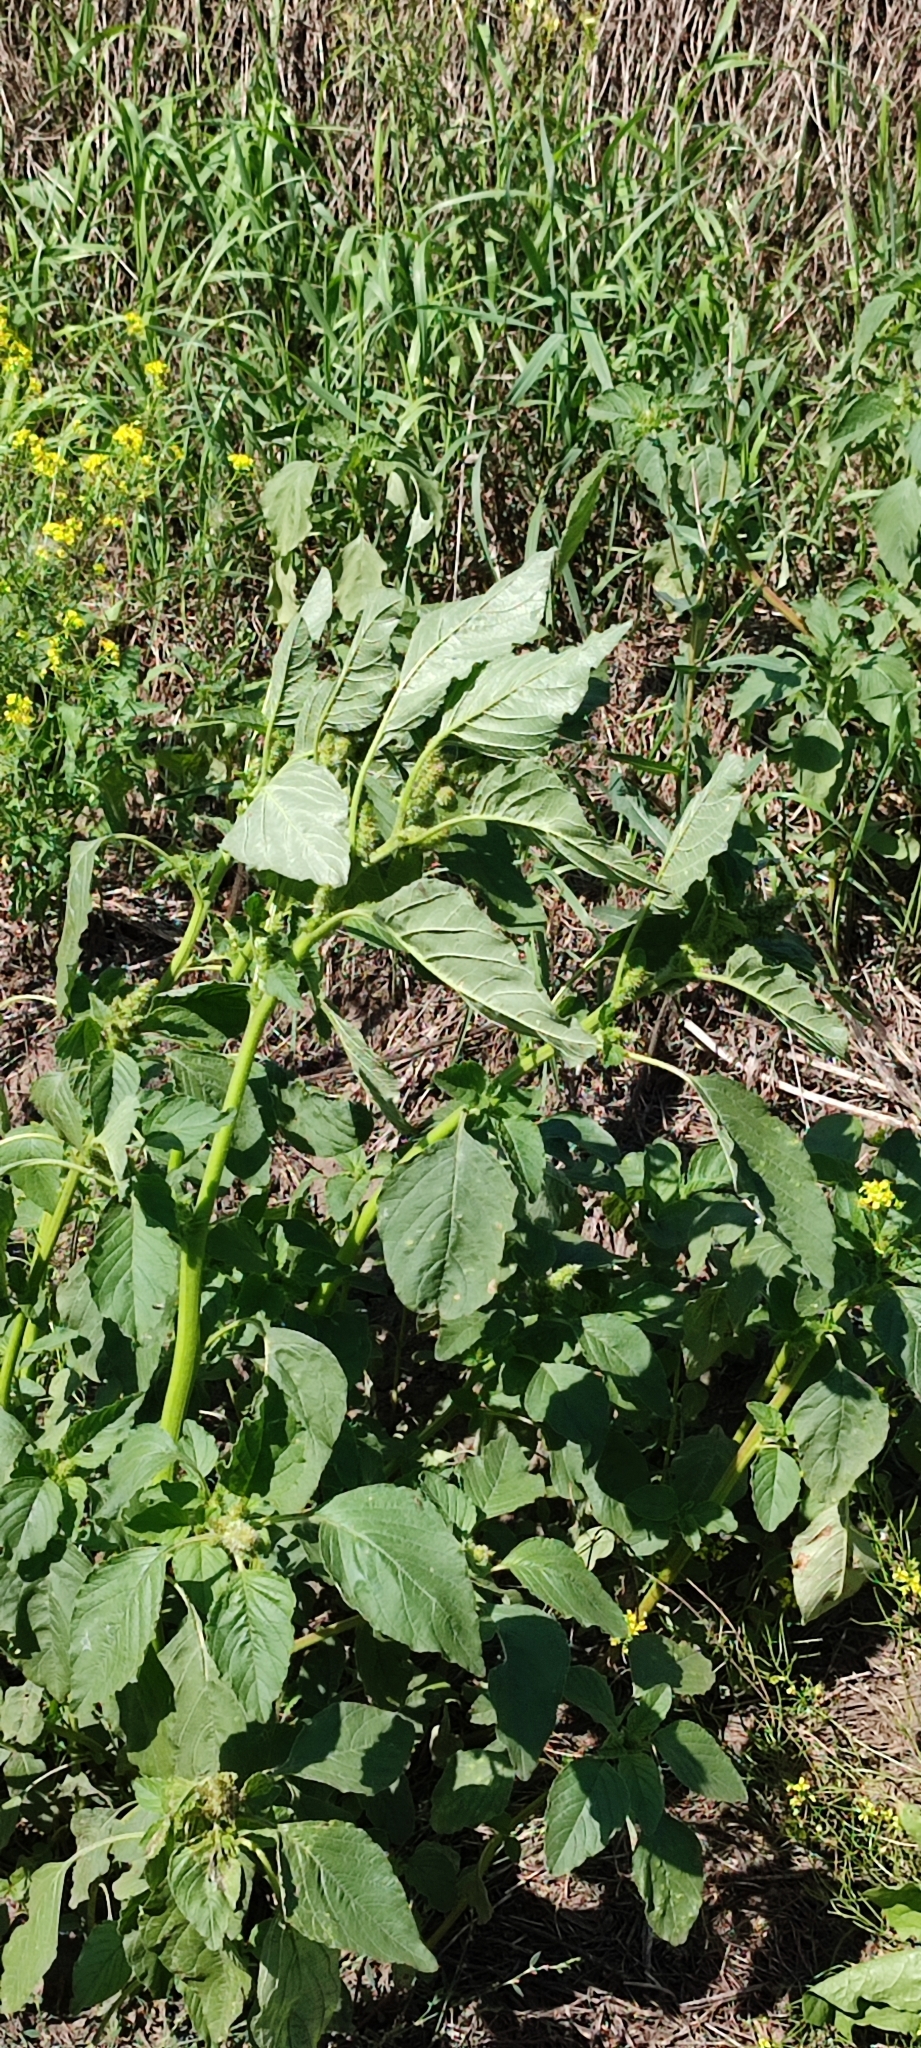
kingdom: Plantae
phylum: Tracheophyta
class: Magnoliopsida
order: Caryophyllales
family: Amaranthaceae
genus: Amaranthus
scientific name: Amaranthus retroflexus
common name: Redroot amaranth
